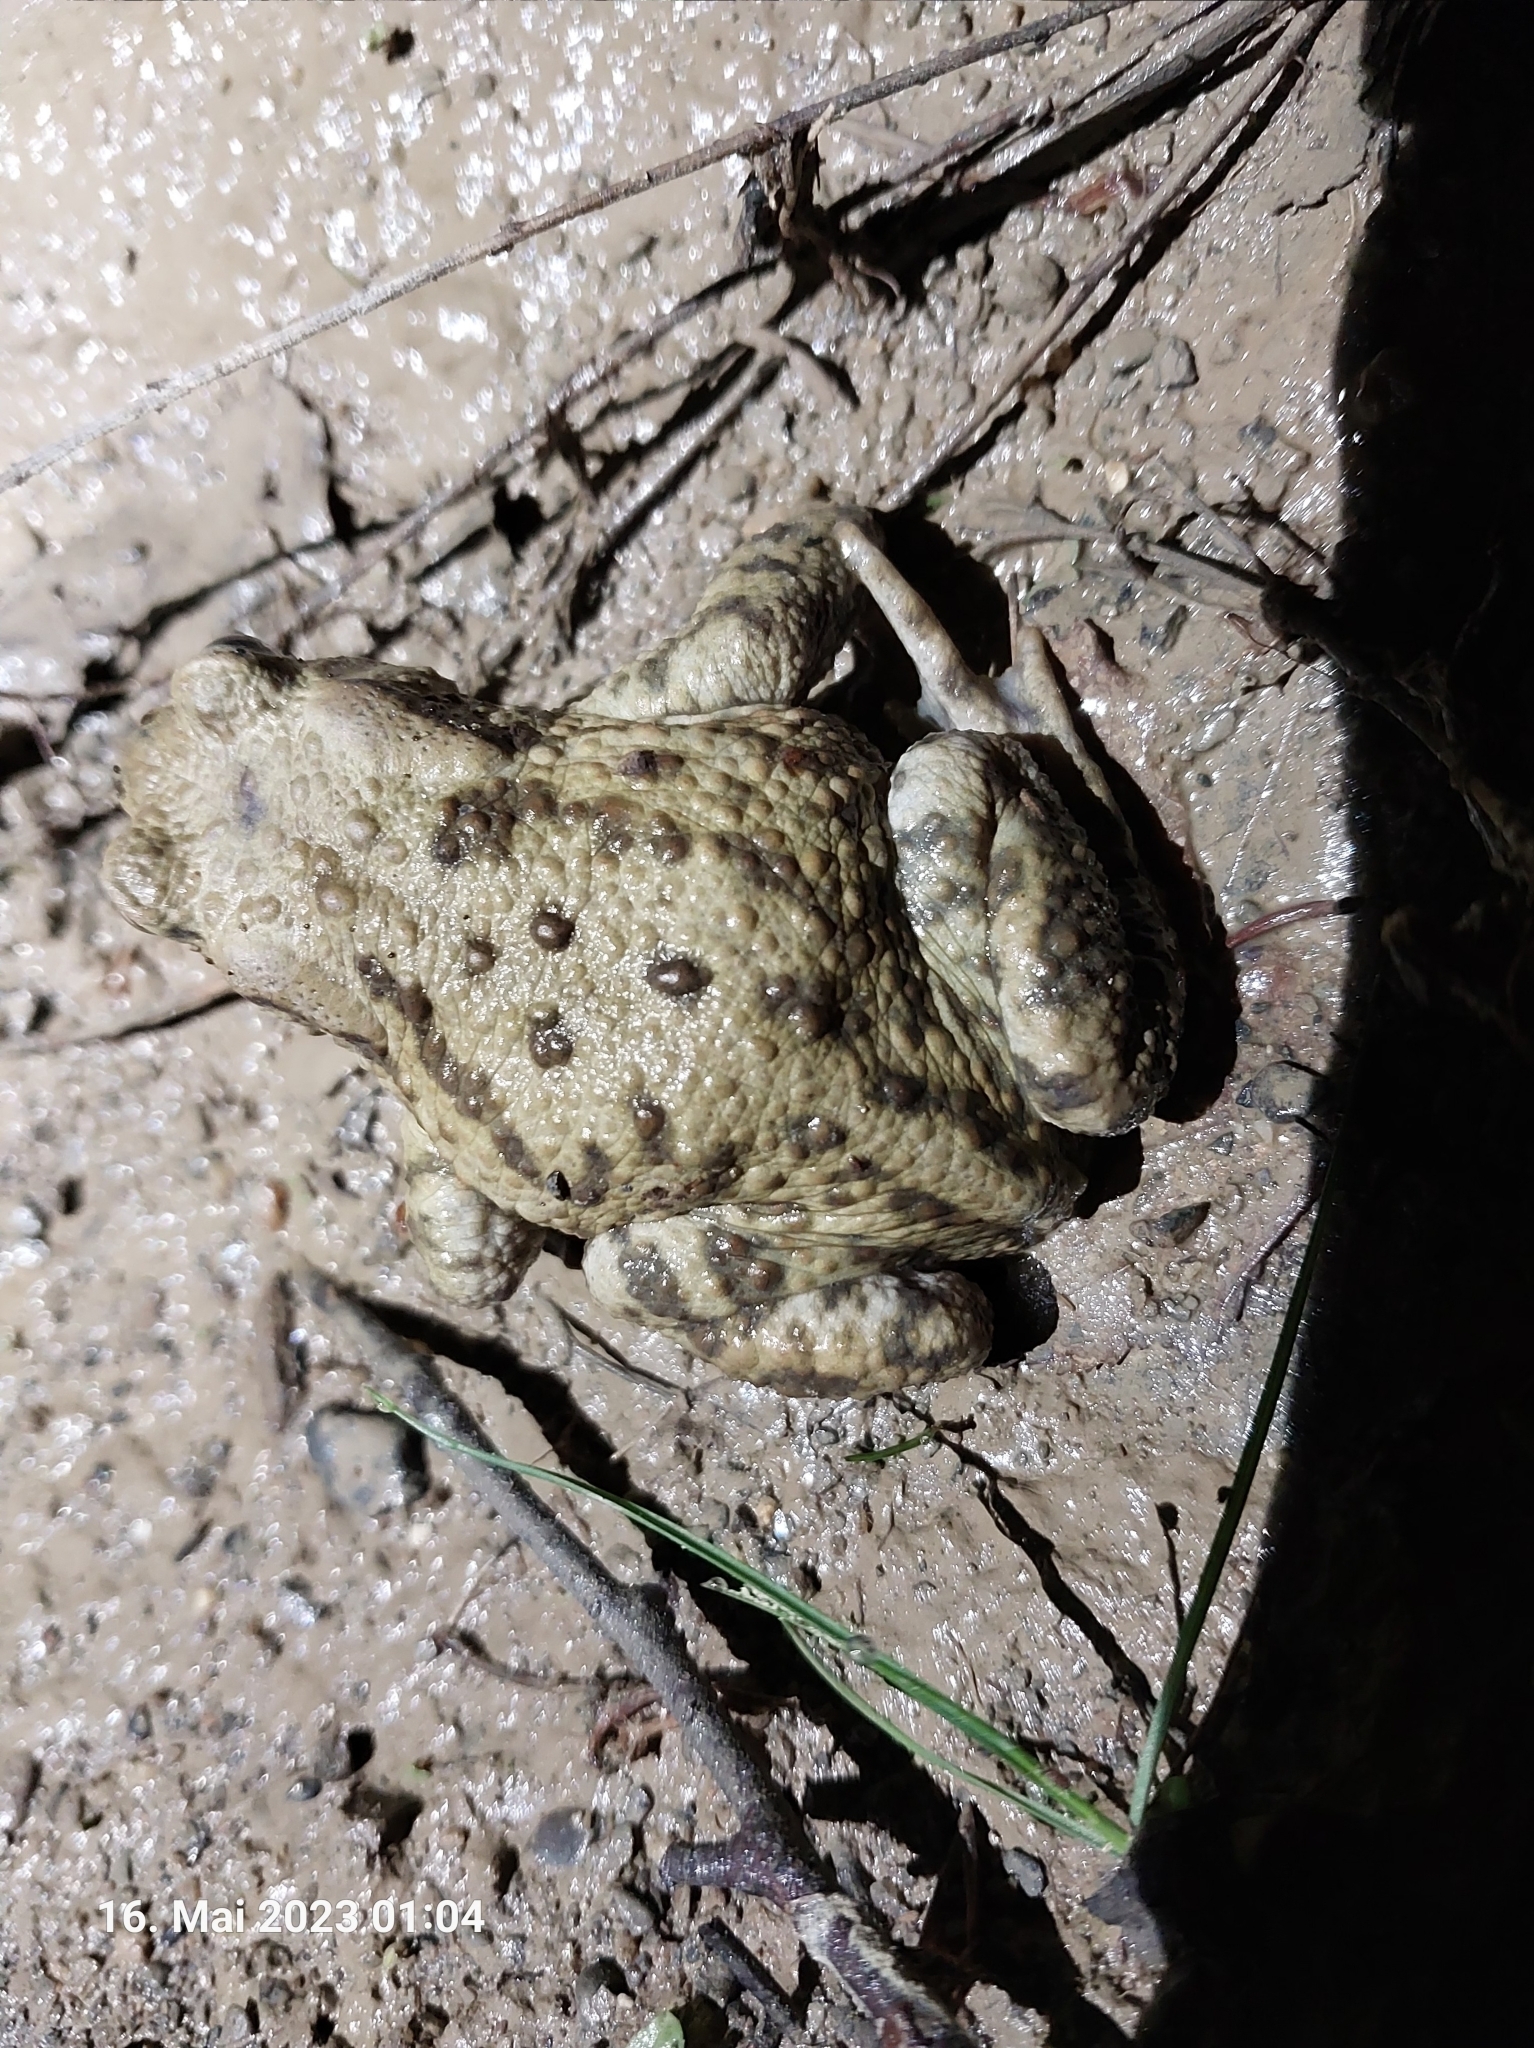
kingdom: Animalia
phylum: Chordata
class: Amphibia
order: Anura
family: Bufonidae
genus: Bufo
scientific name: Bufo bufo
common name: Common toad
